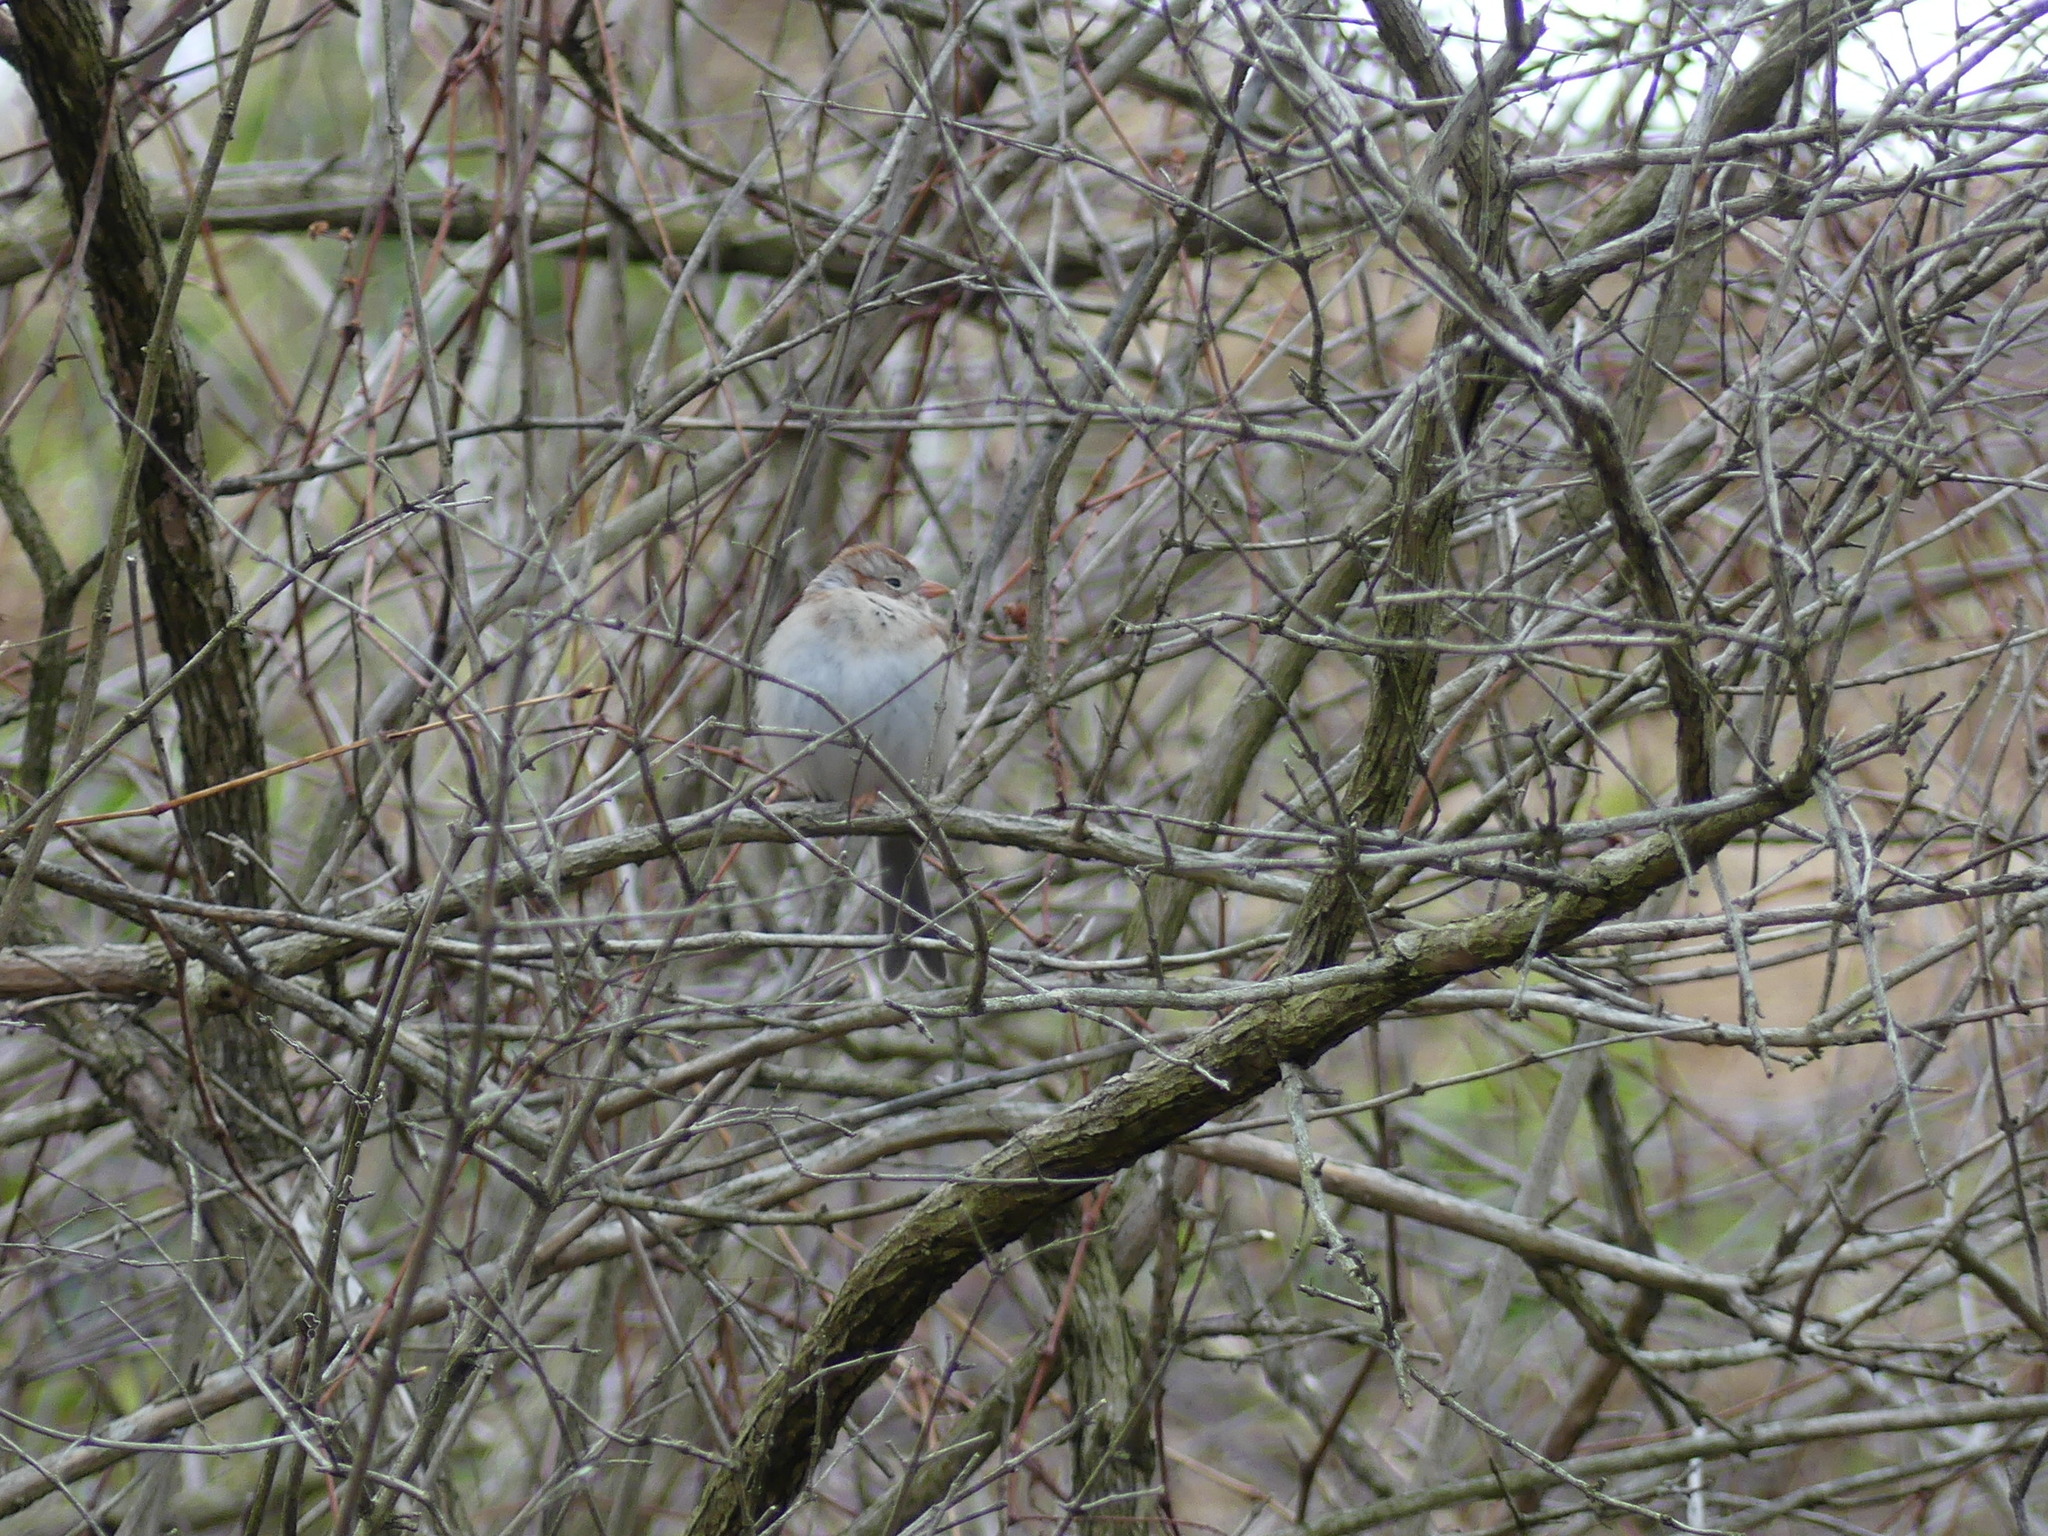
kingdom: Animalia
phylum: Chordata
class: Aves
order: Passeriformes
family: Passerellidae
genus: Spizella
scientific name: Spizella pusilla
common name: Field sparrow
